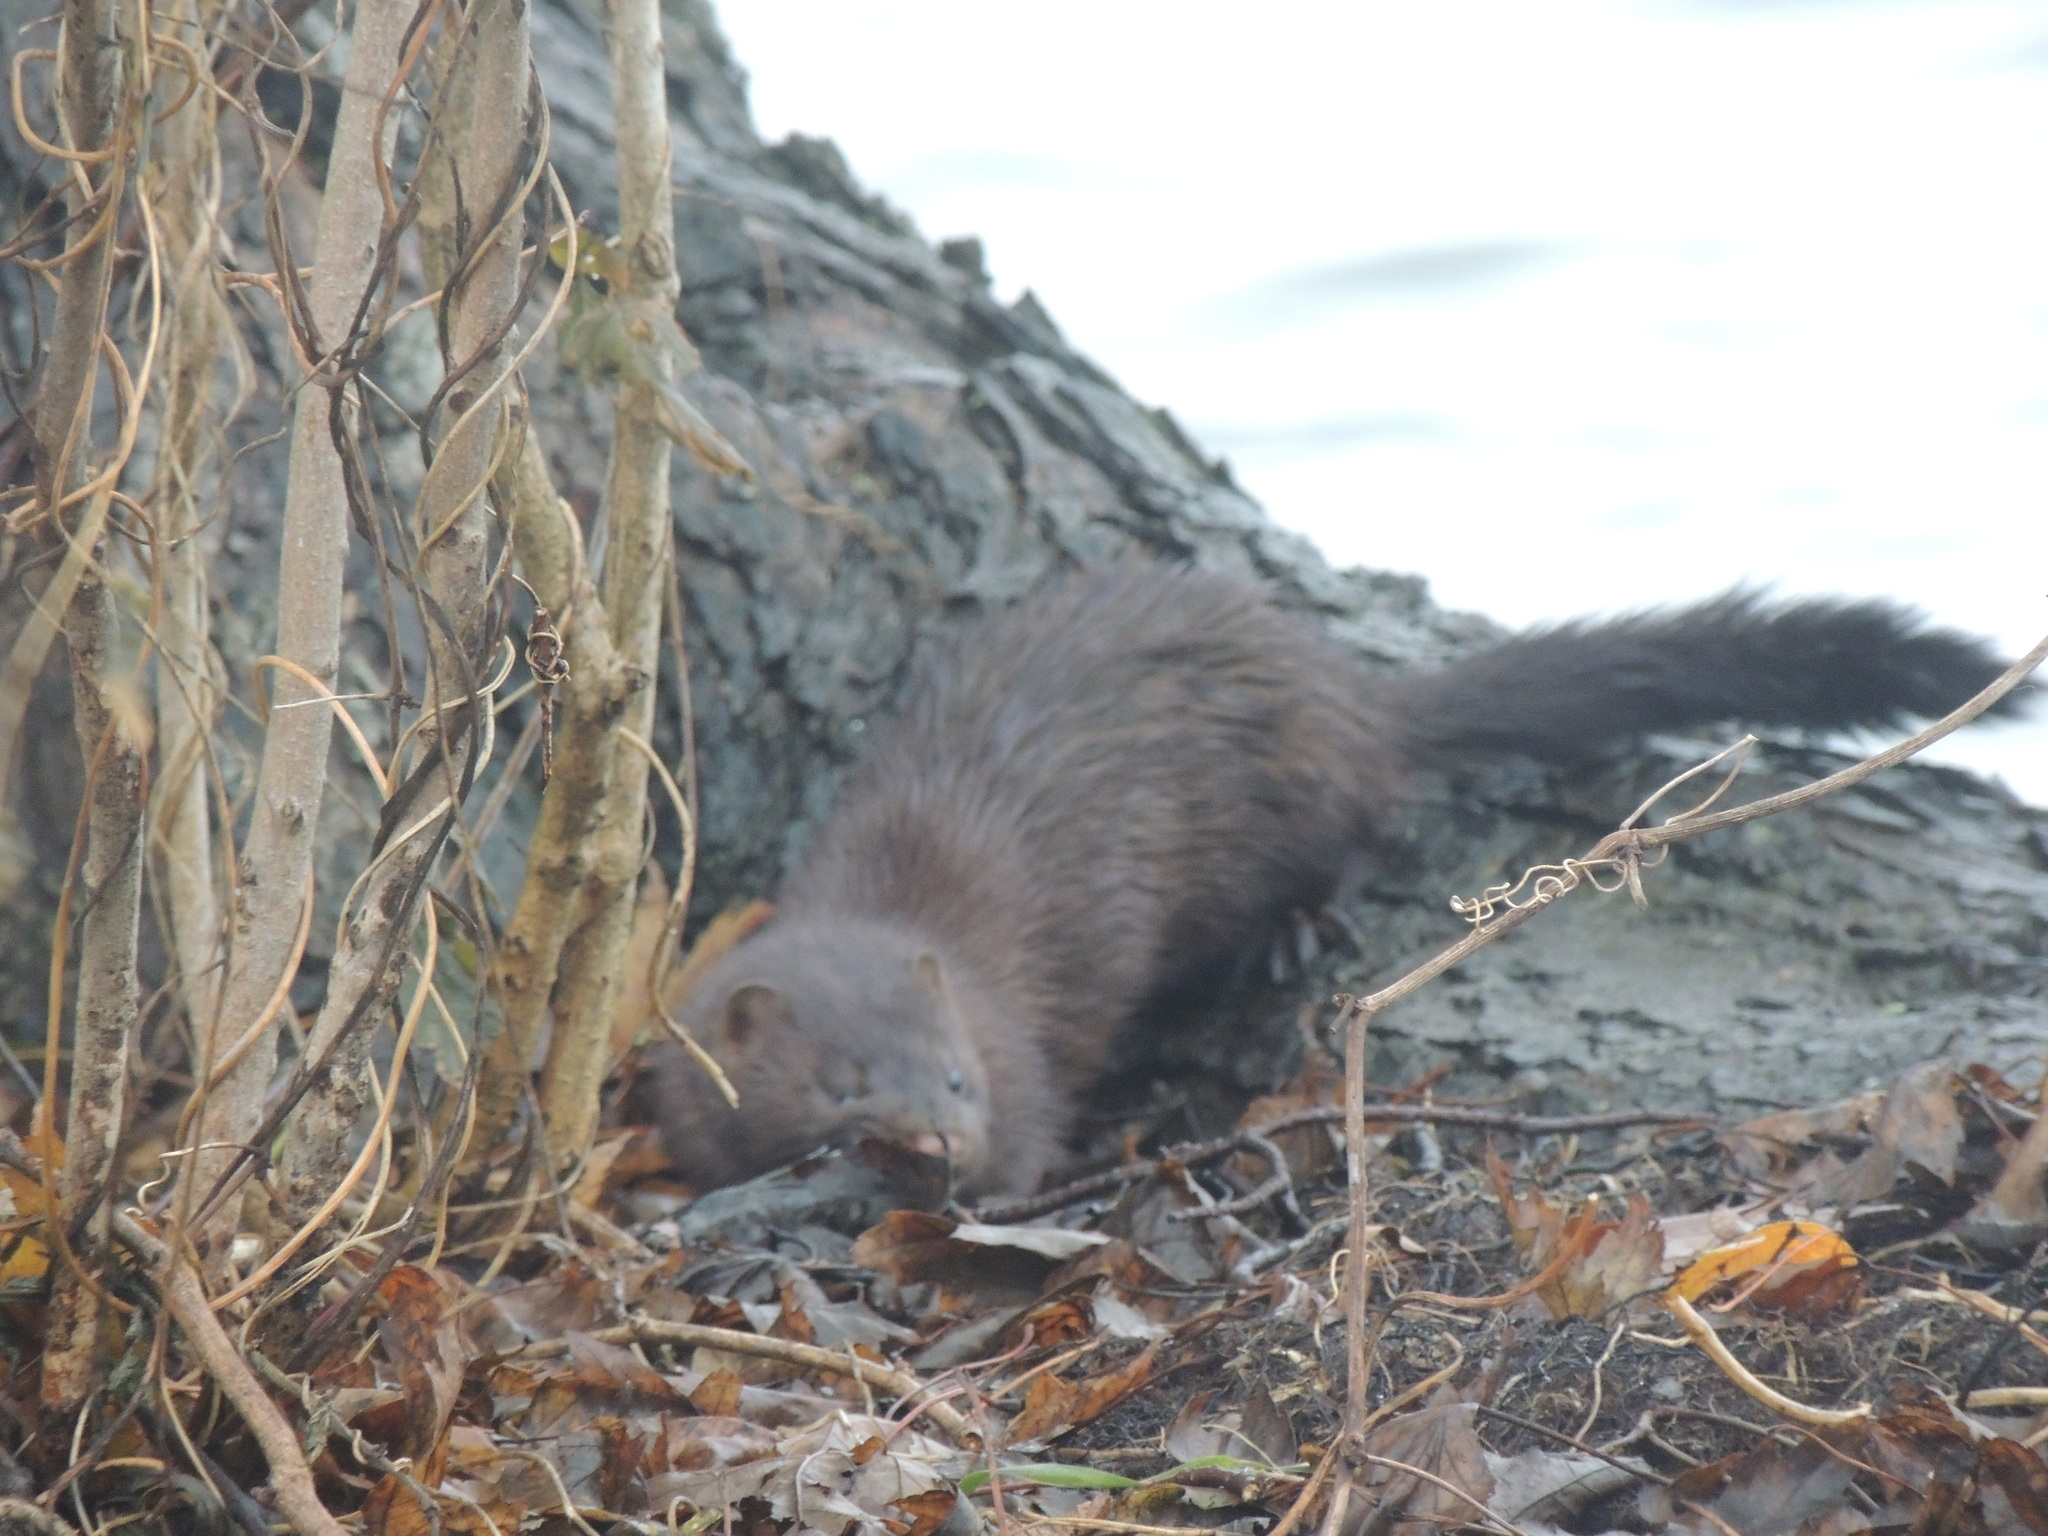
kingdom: Animalia
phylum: Chordata
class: Mammalia
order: Carnivora
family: Mustelidae
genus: Mustela
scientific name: Mustela
